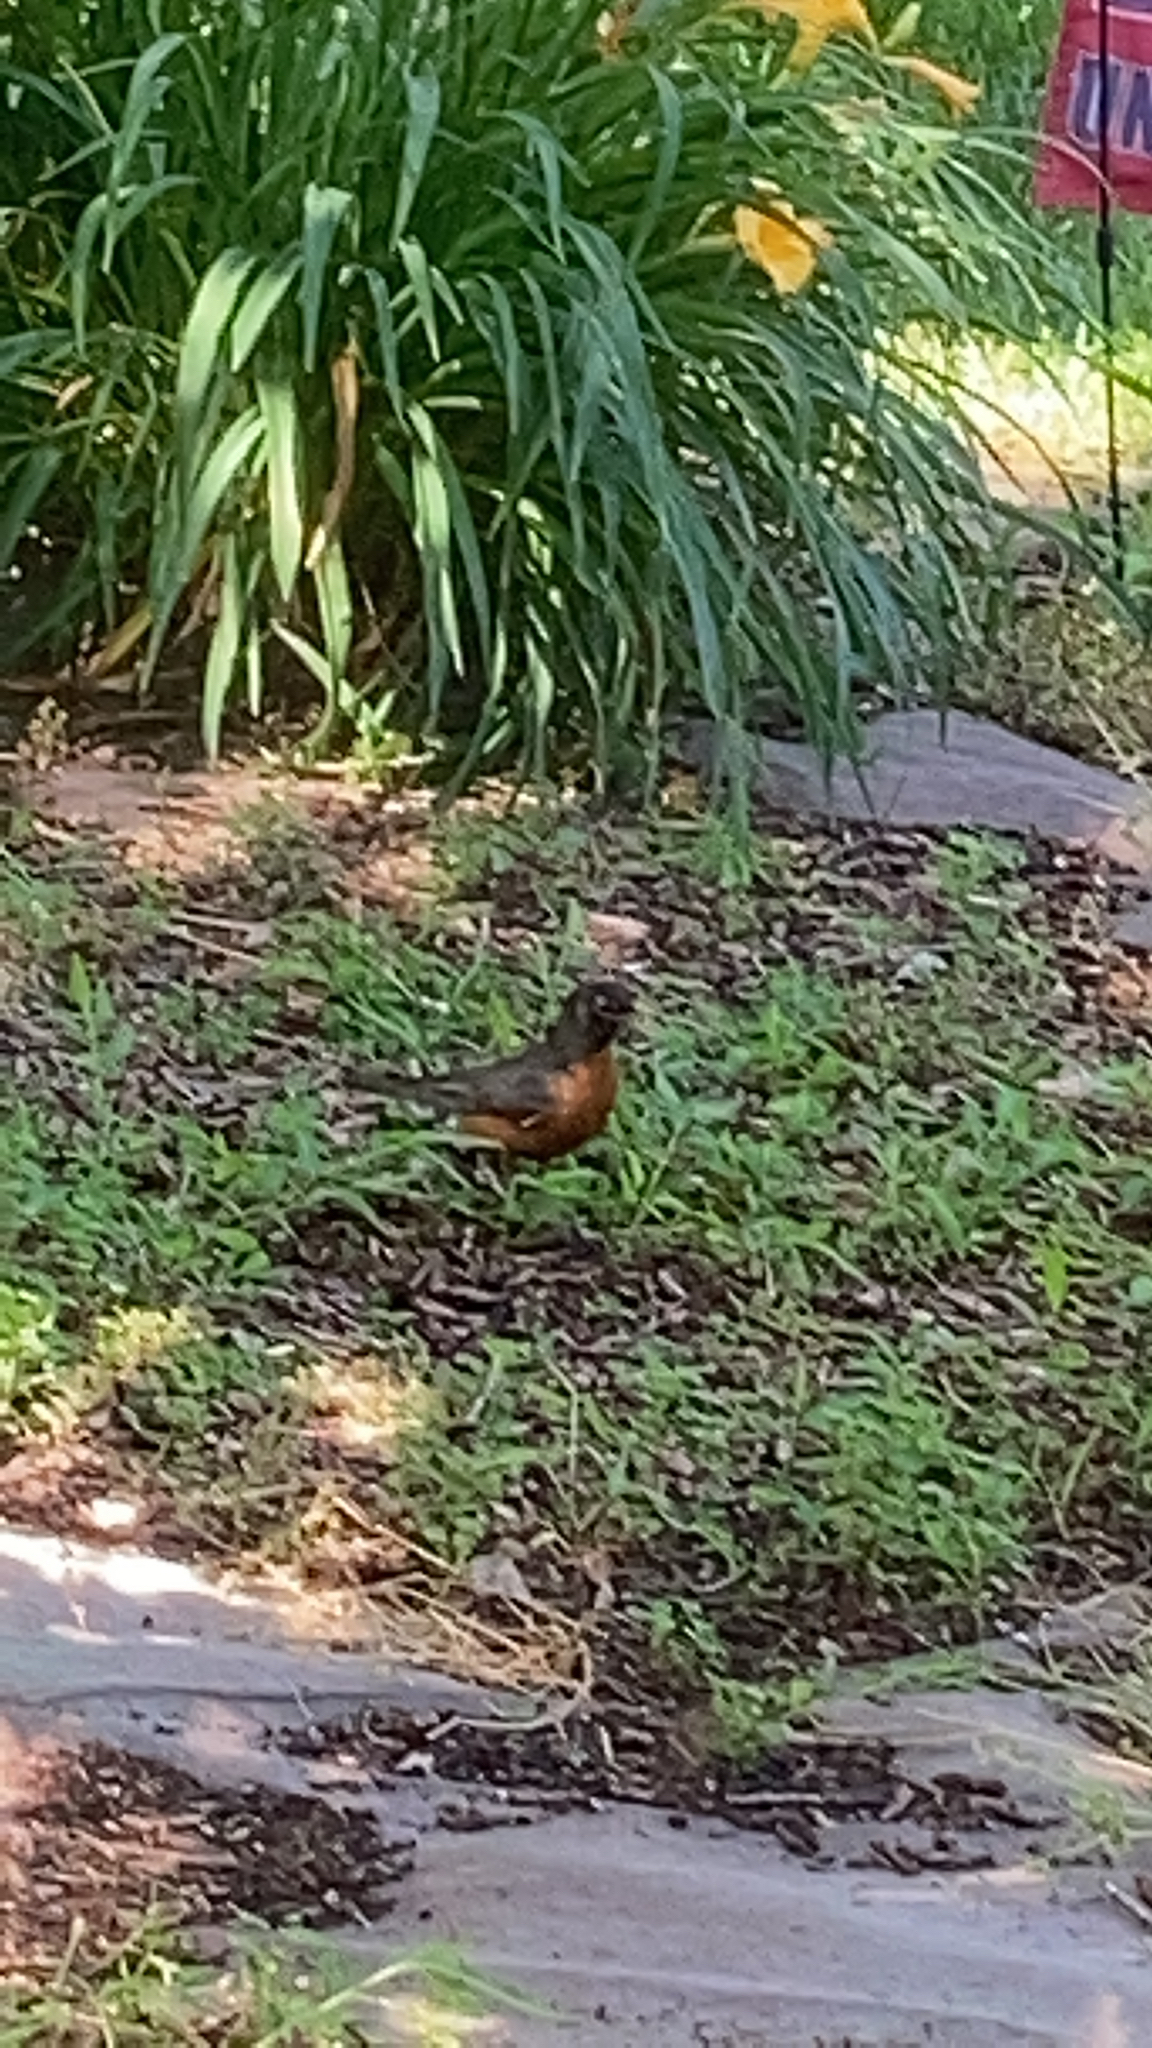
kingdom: Animalia
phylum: Chordata
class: Aves
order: Passeriformes
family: Turdidae
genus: Turdus
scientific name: Turdus migratorius
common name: American robin
